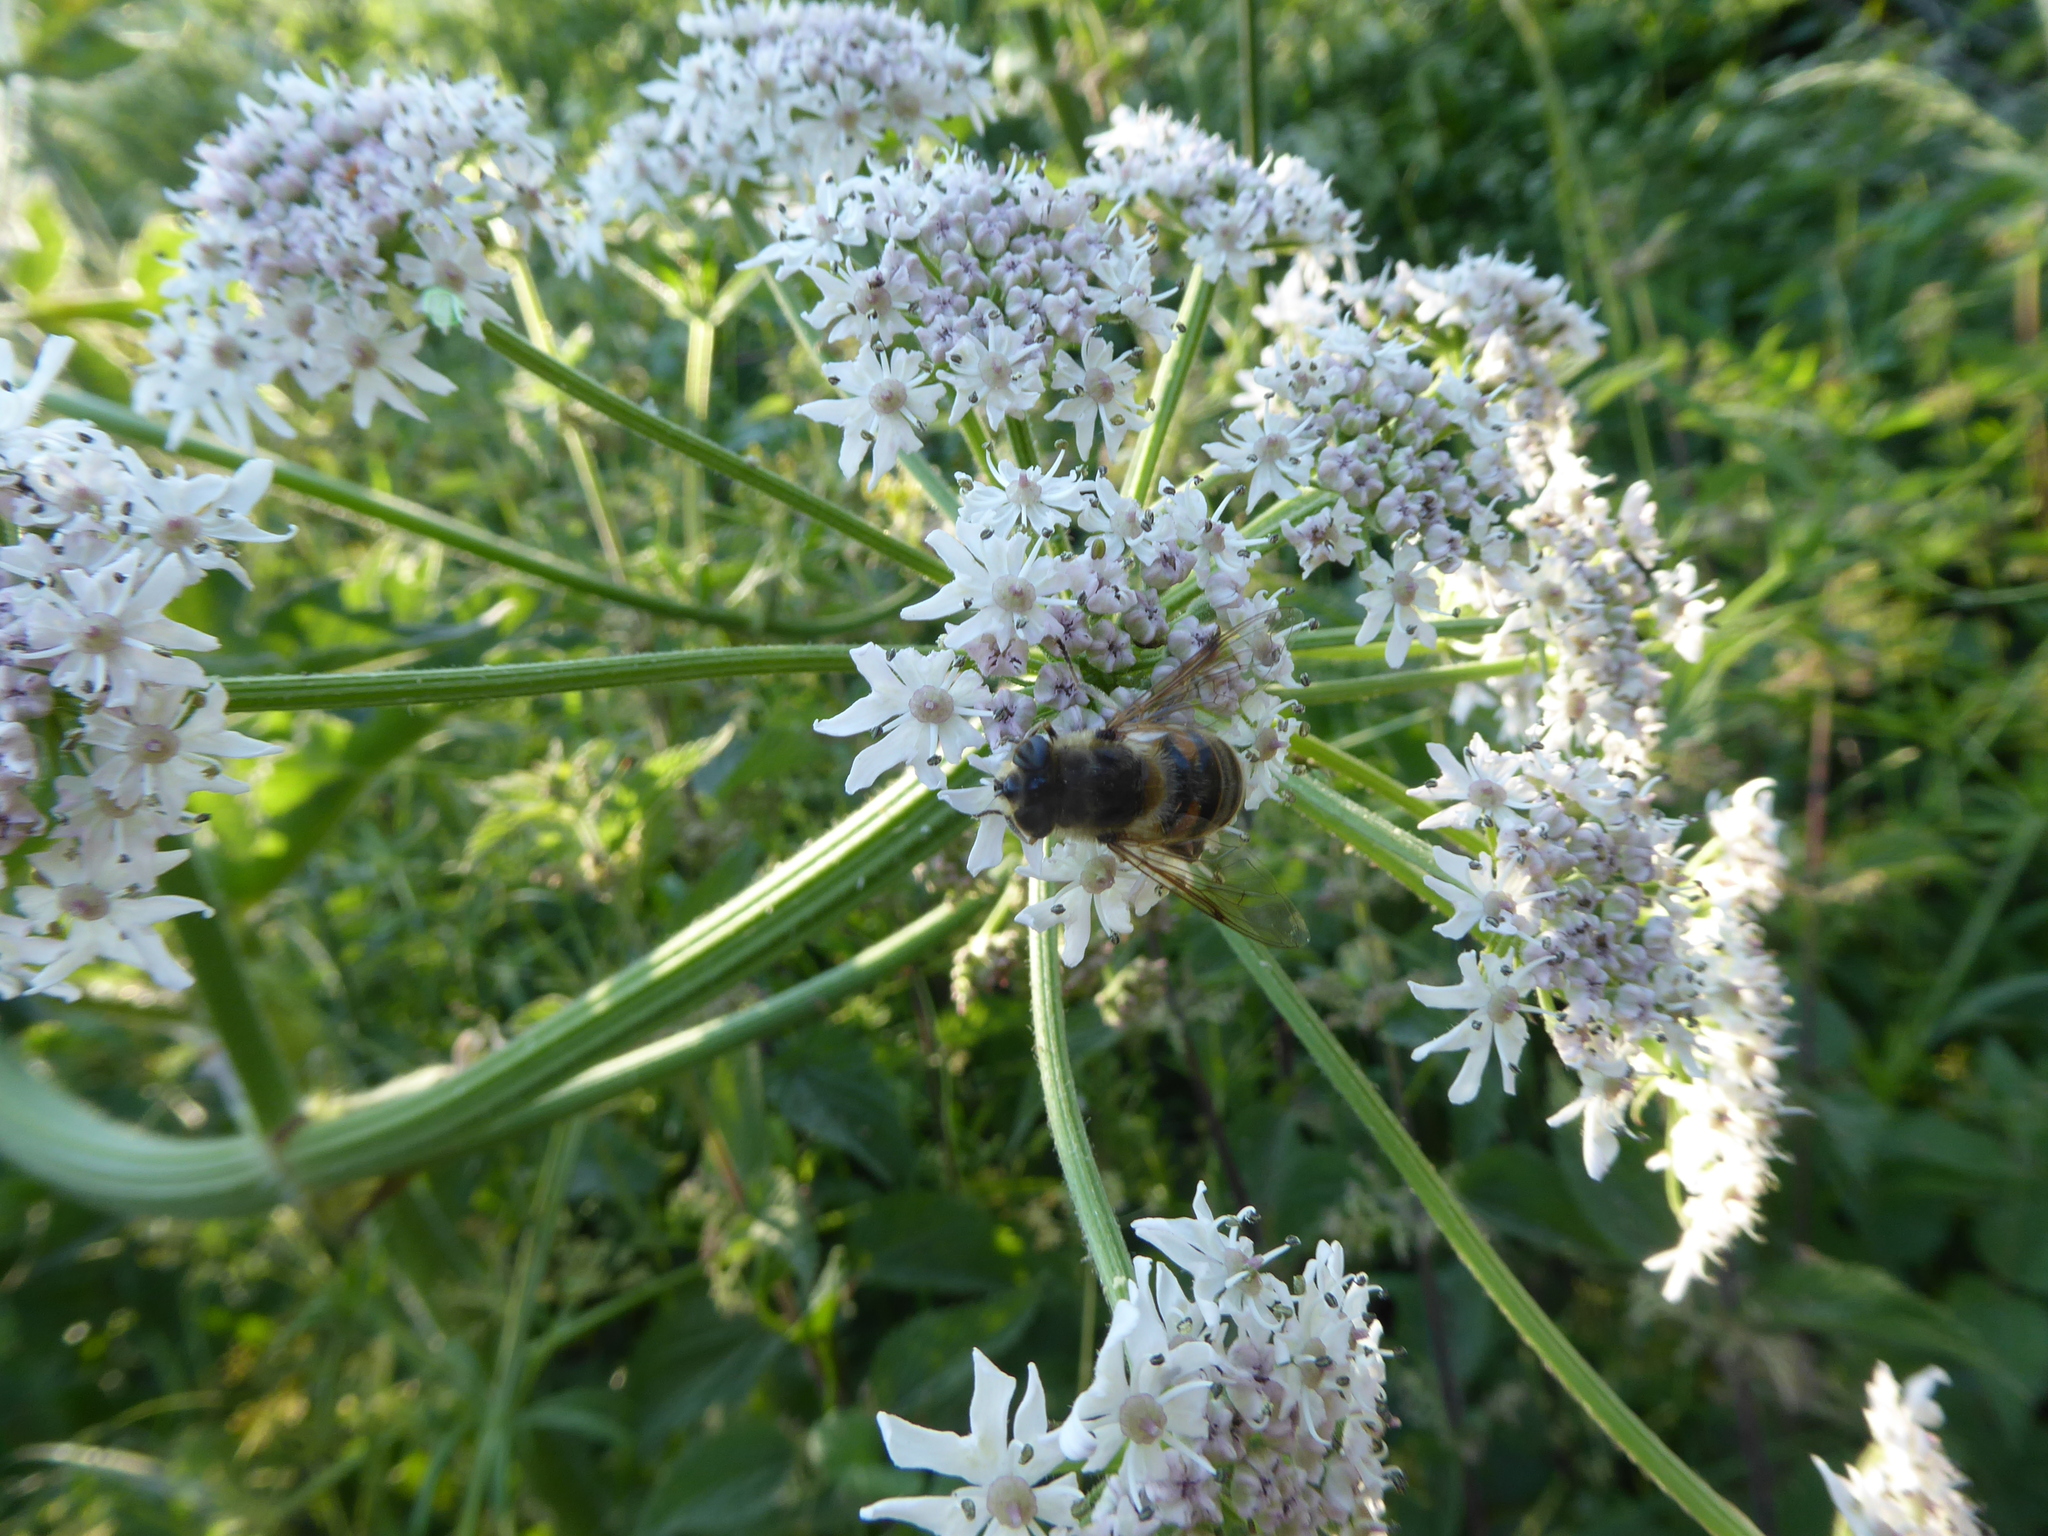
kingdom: Animalia
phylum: Arthropoda
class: Insecta
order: Diptera
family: Syrphidae
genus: Eristalis
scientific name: Eristalis tenax
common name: Drone fly
